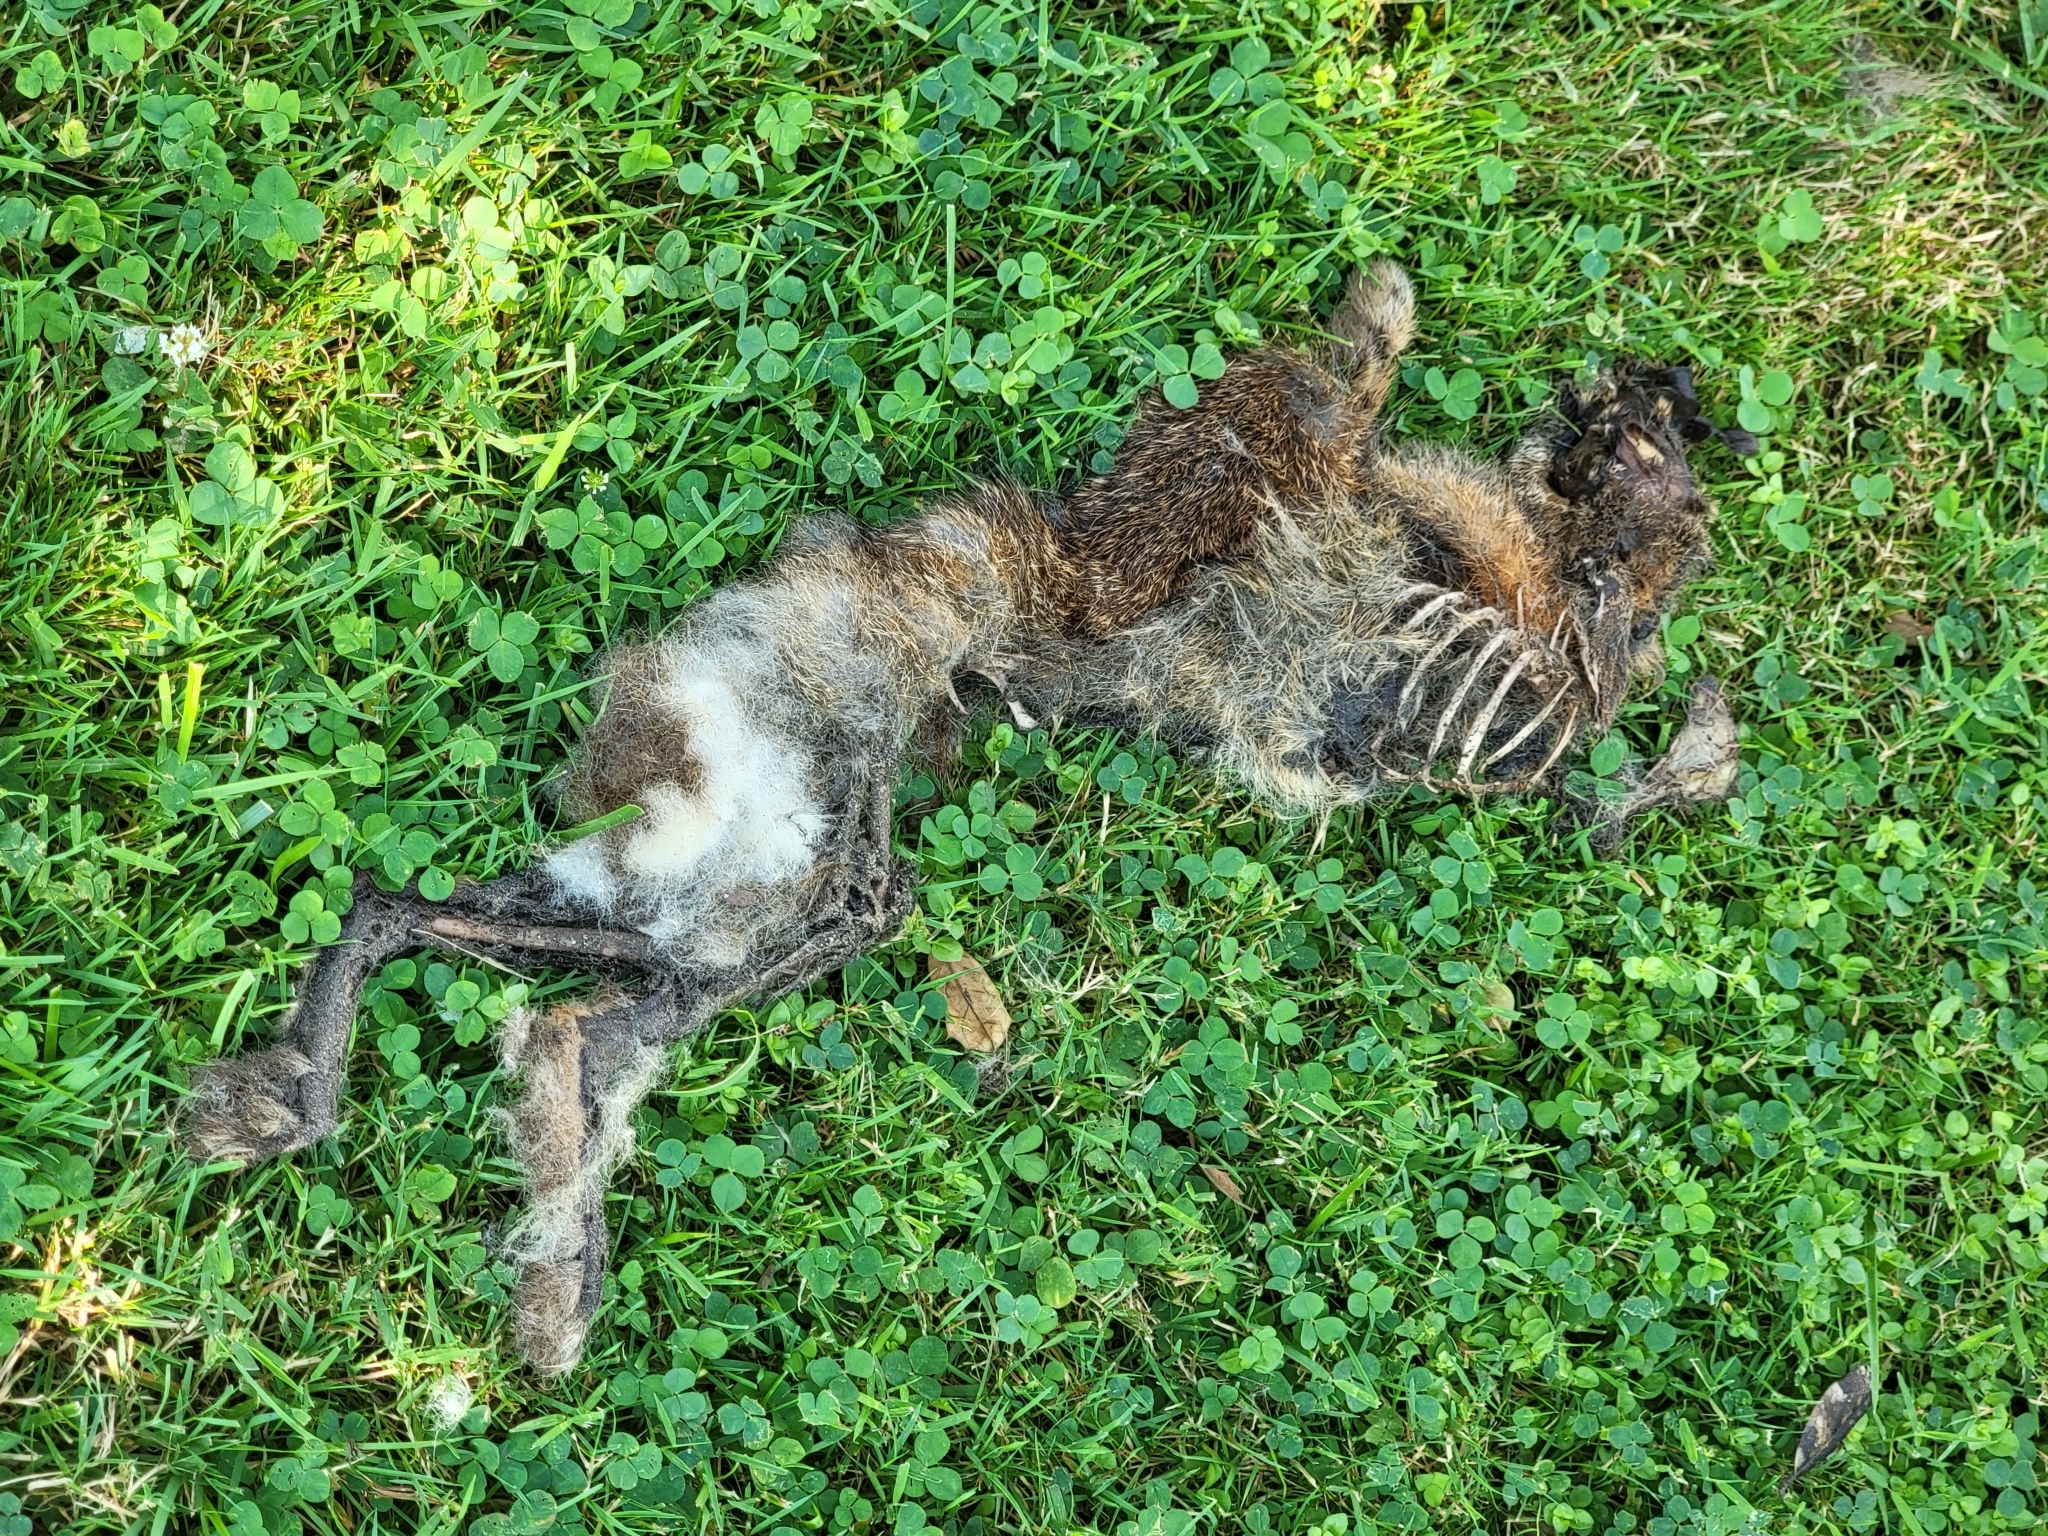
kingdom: Animalia
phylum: Chordata
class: Mammalia
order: Lagomorpha
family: Leporidae
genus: Sylvilagus
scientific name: Sylvilagus floridanus
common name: Eastern cottontail
